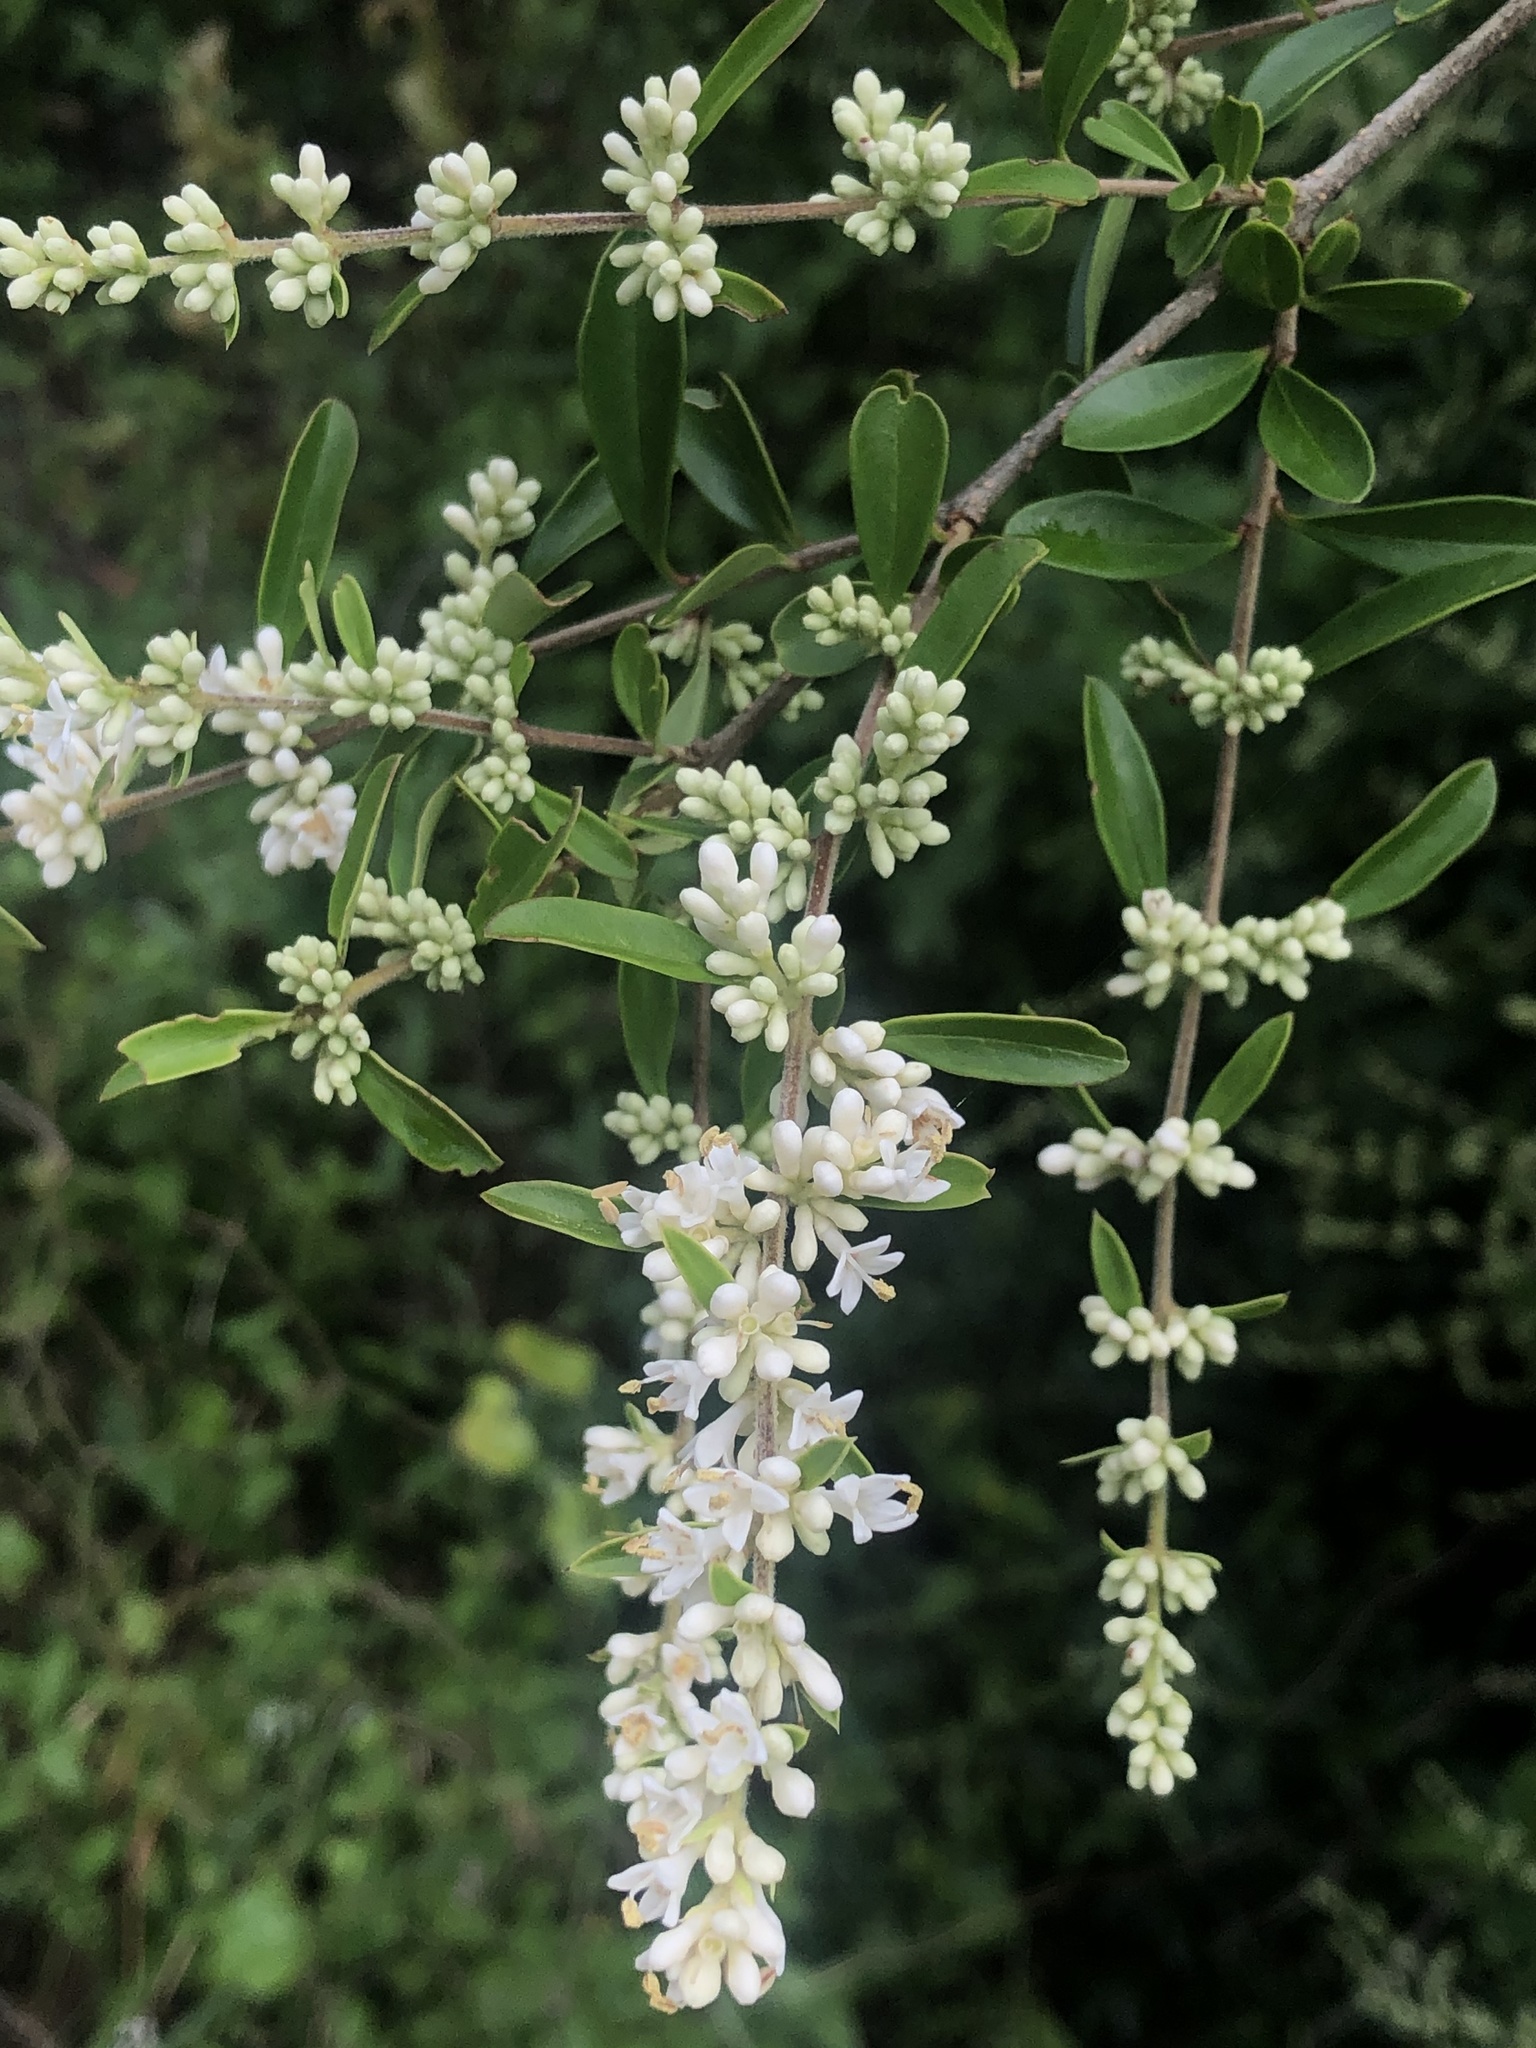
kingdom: Plantae
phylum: Tracheophyta
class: Magnoliopsida
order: Lamiales
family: Oleaceae
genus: Ligustrum
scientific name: Ligustrum quihoui
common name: Waxyleaf privet
